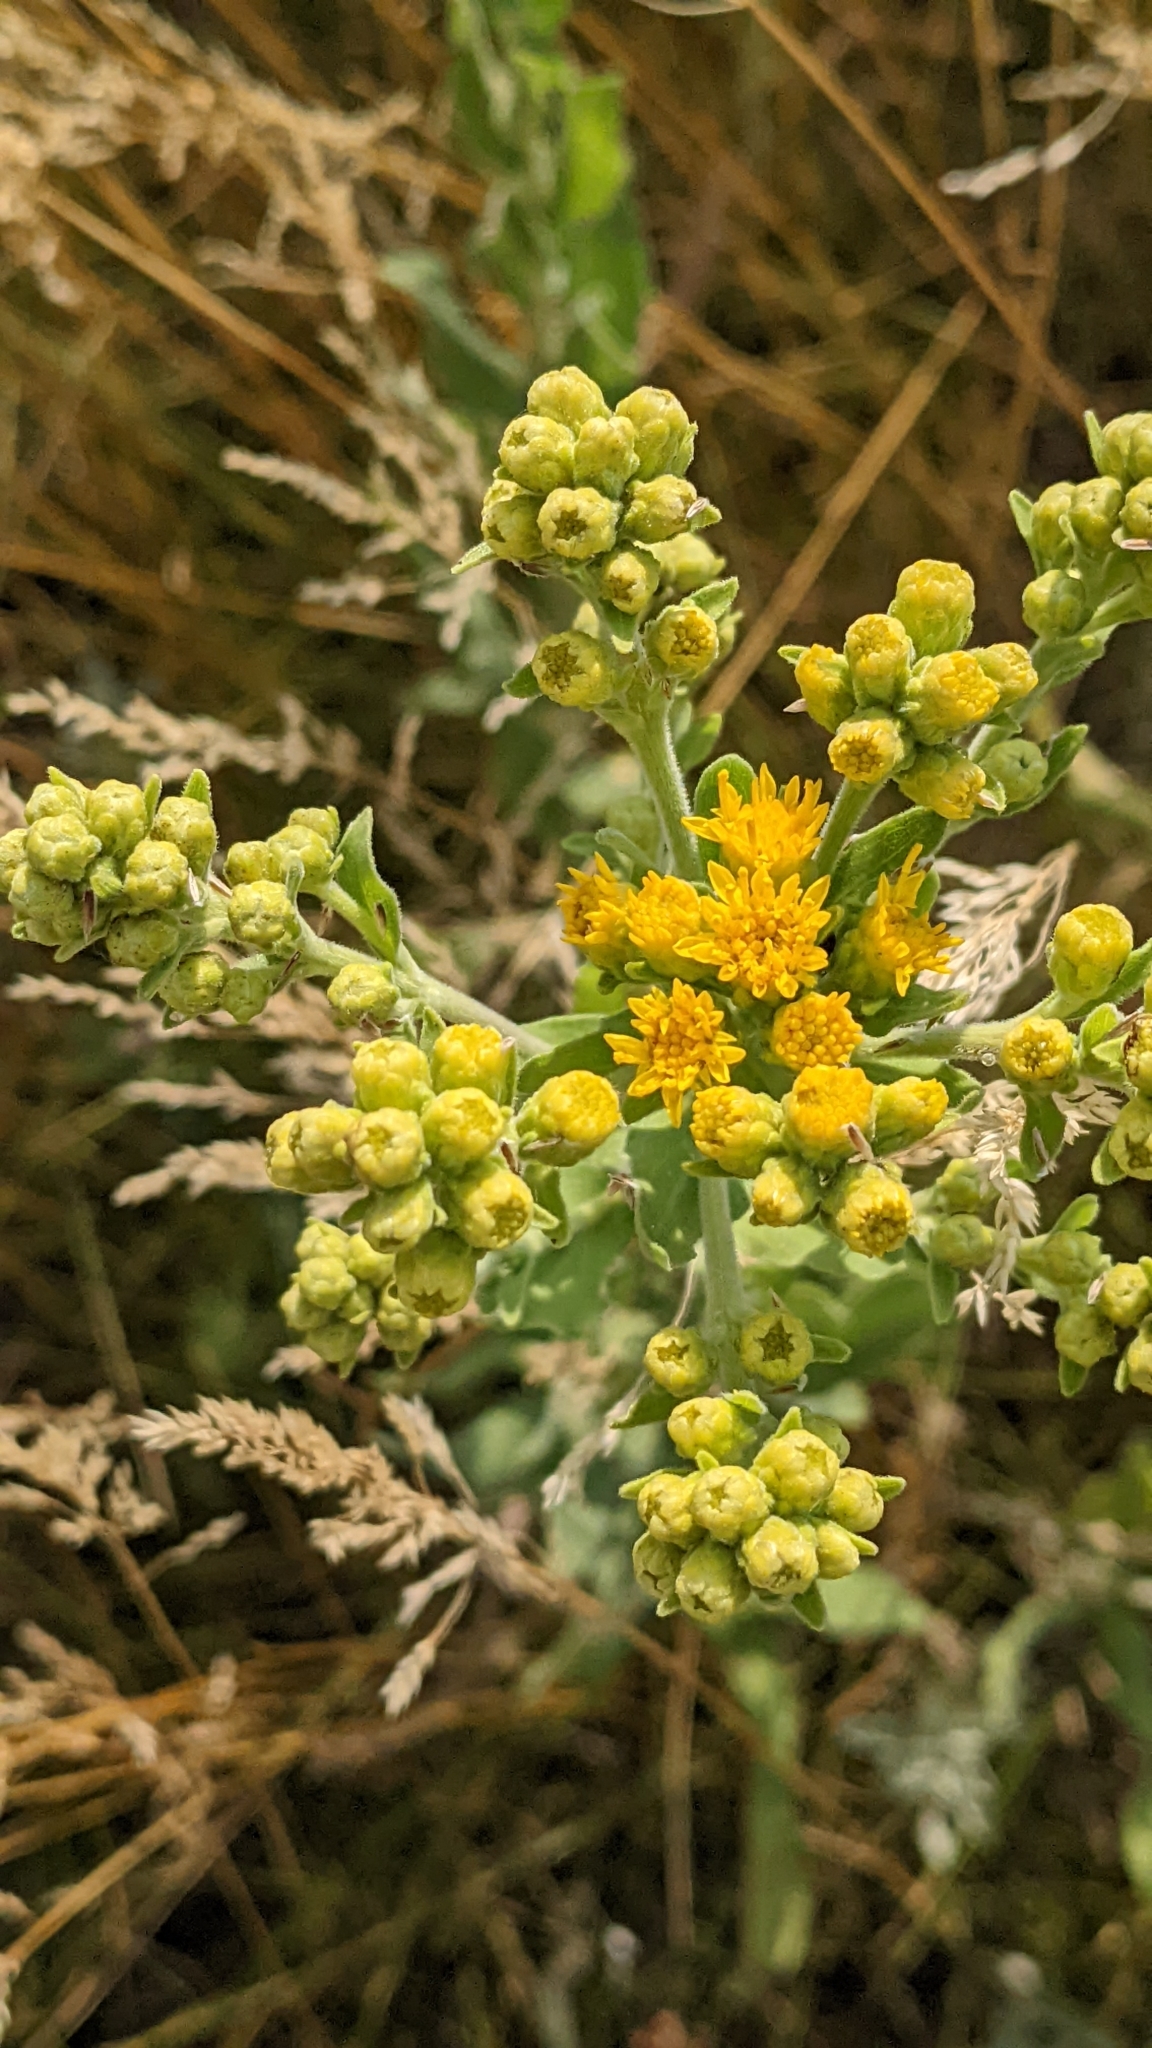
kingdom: Plantae
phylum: Tracheophyta
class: Magnoliopsida
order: Asterales
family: Asteraceae
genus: Solidago
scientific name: Solidago rigida
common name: Rigid goldenrod
